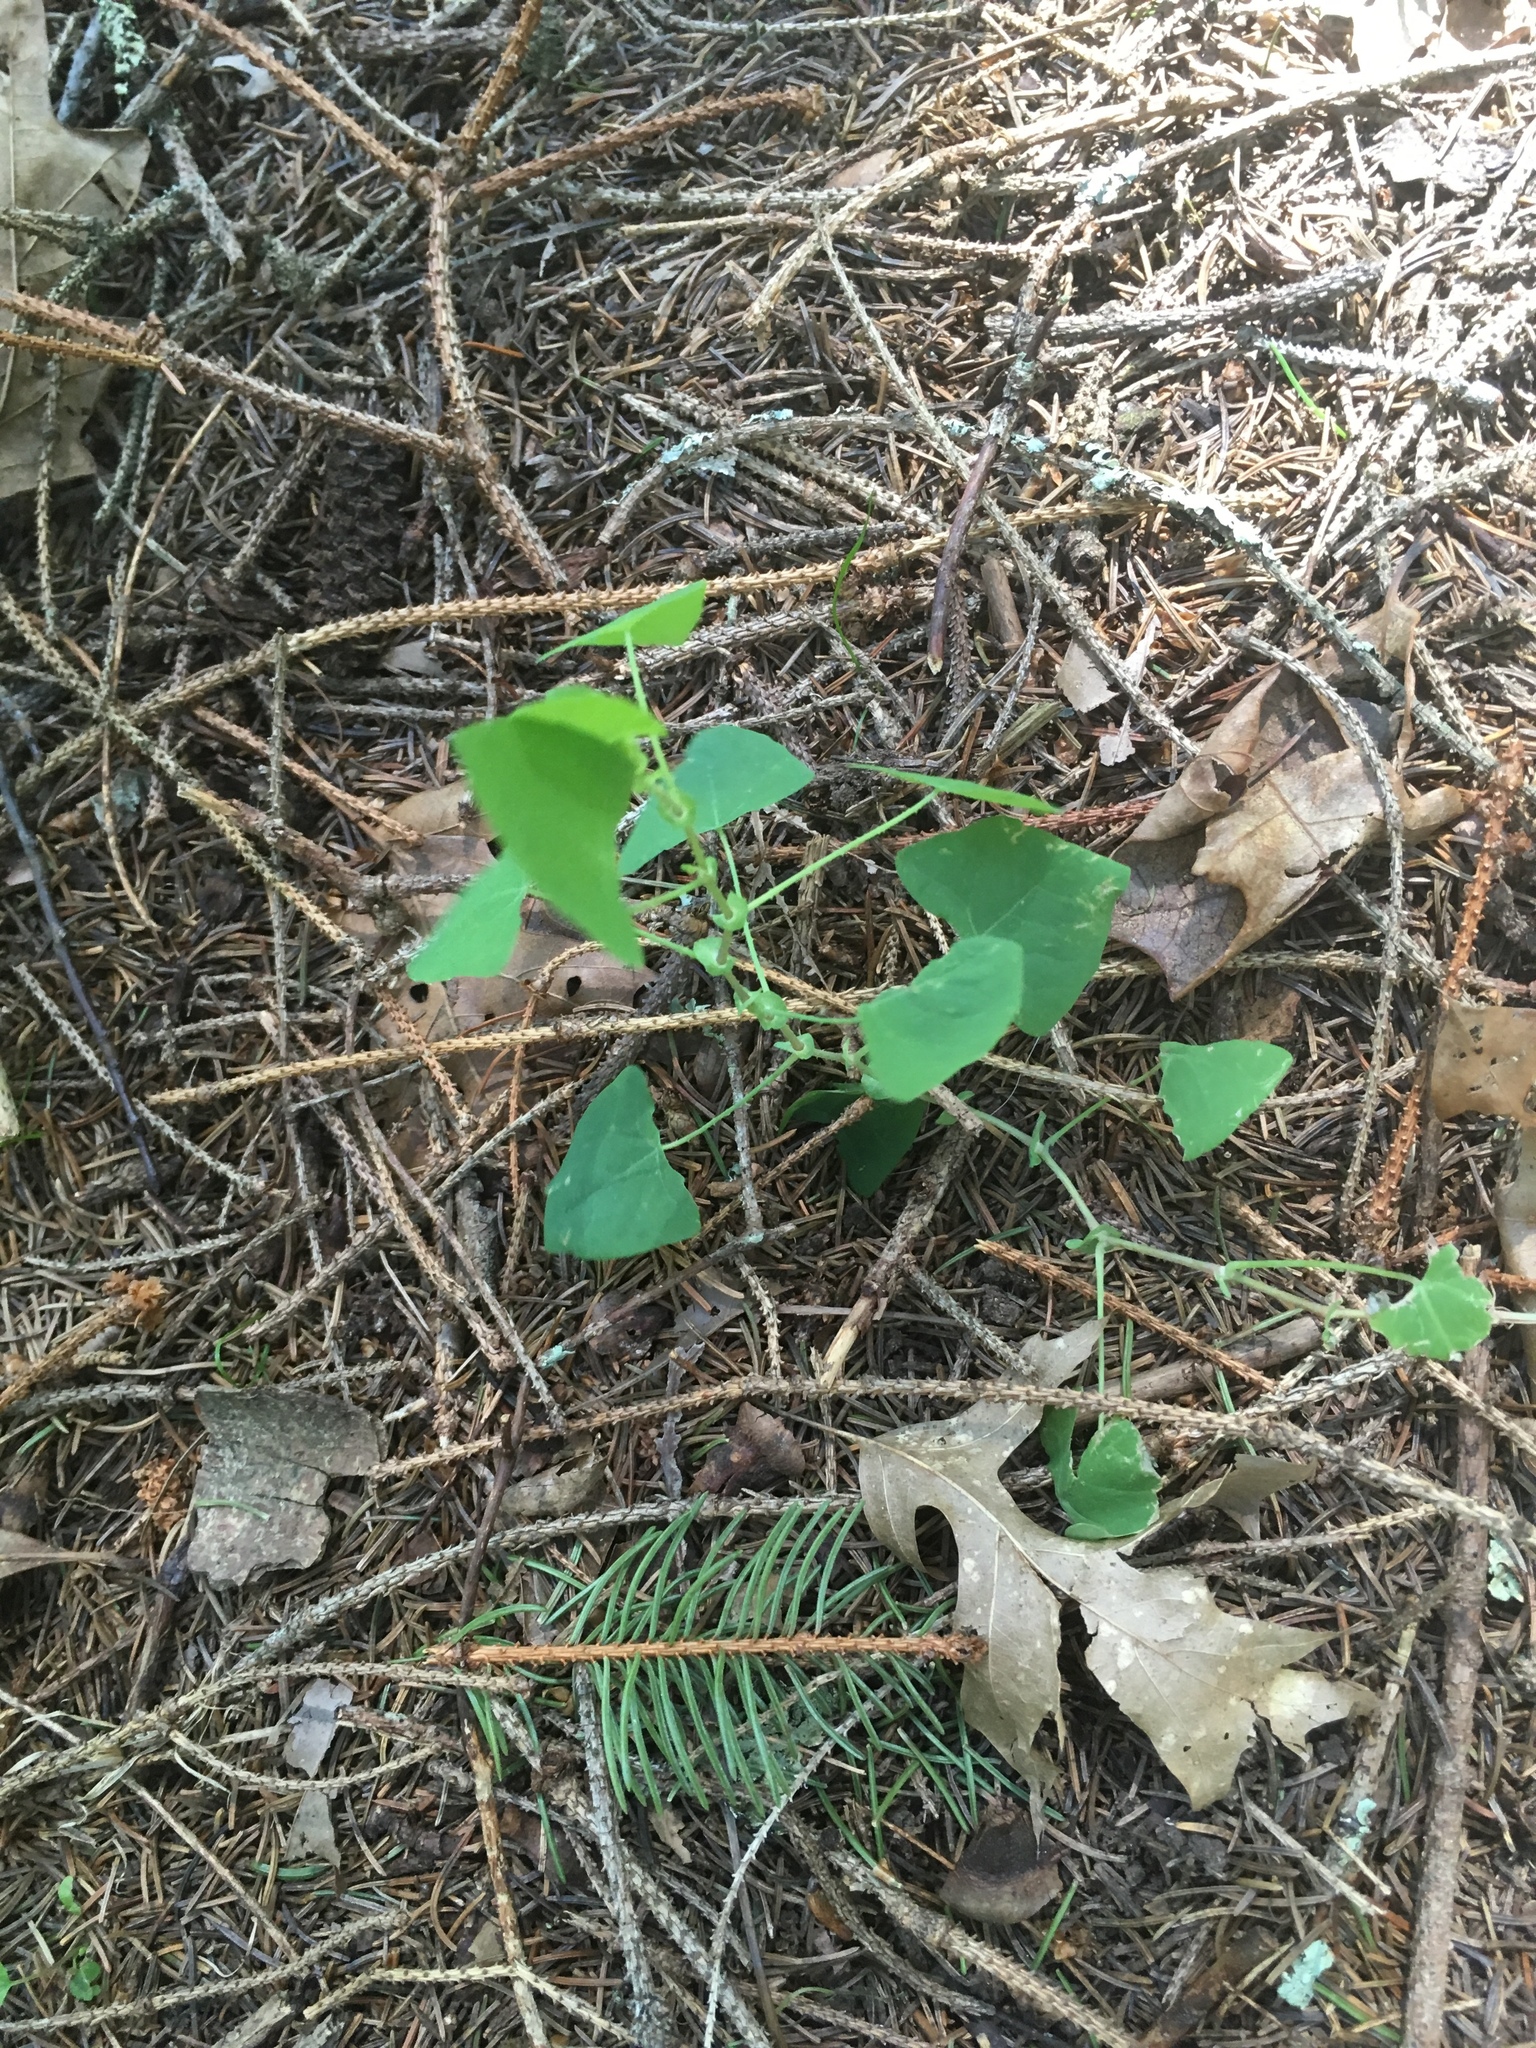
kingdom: Plantae
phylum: Tracheophyta
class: Magnoliopsida
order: Caryophyllales
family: Polygonaceae
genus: Persicaria
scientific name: Persicaria perfoliata
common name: Asiatic tearthumb
